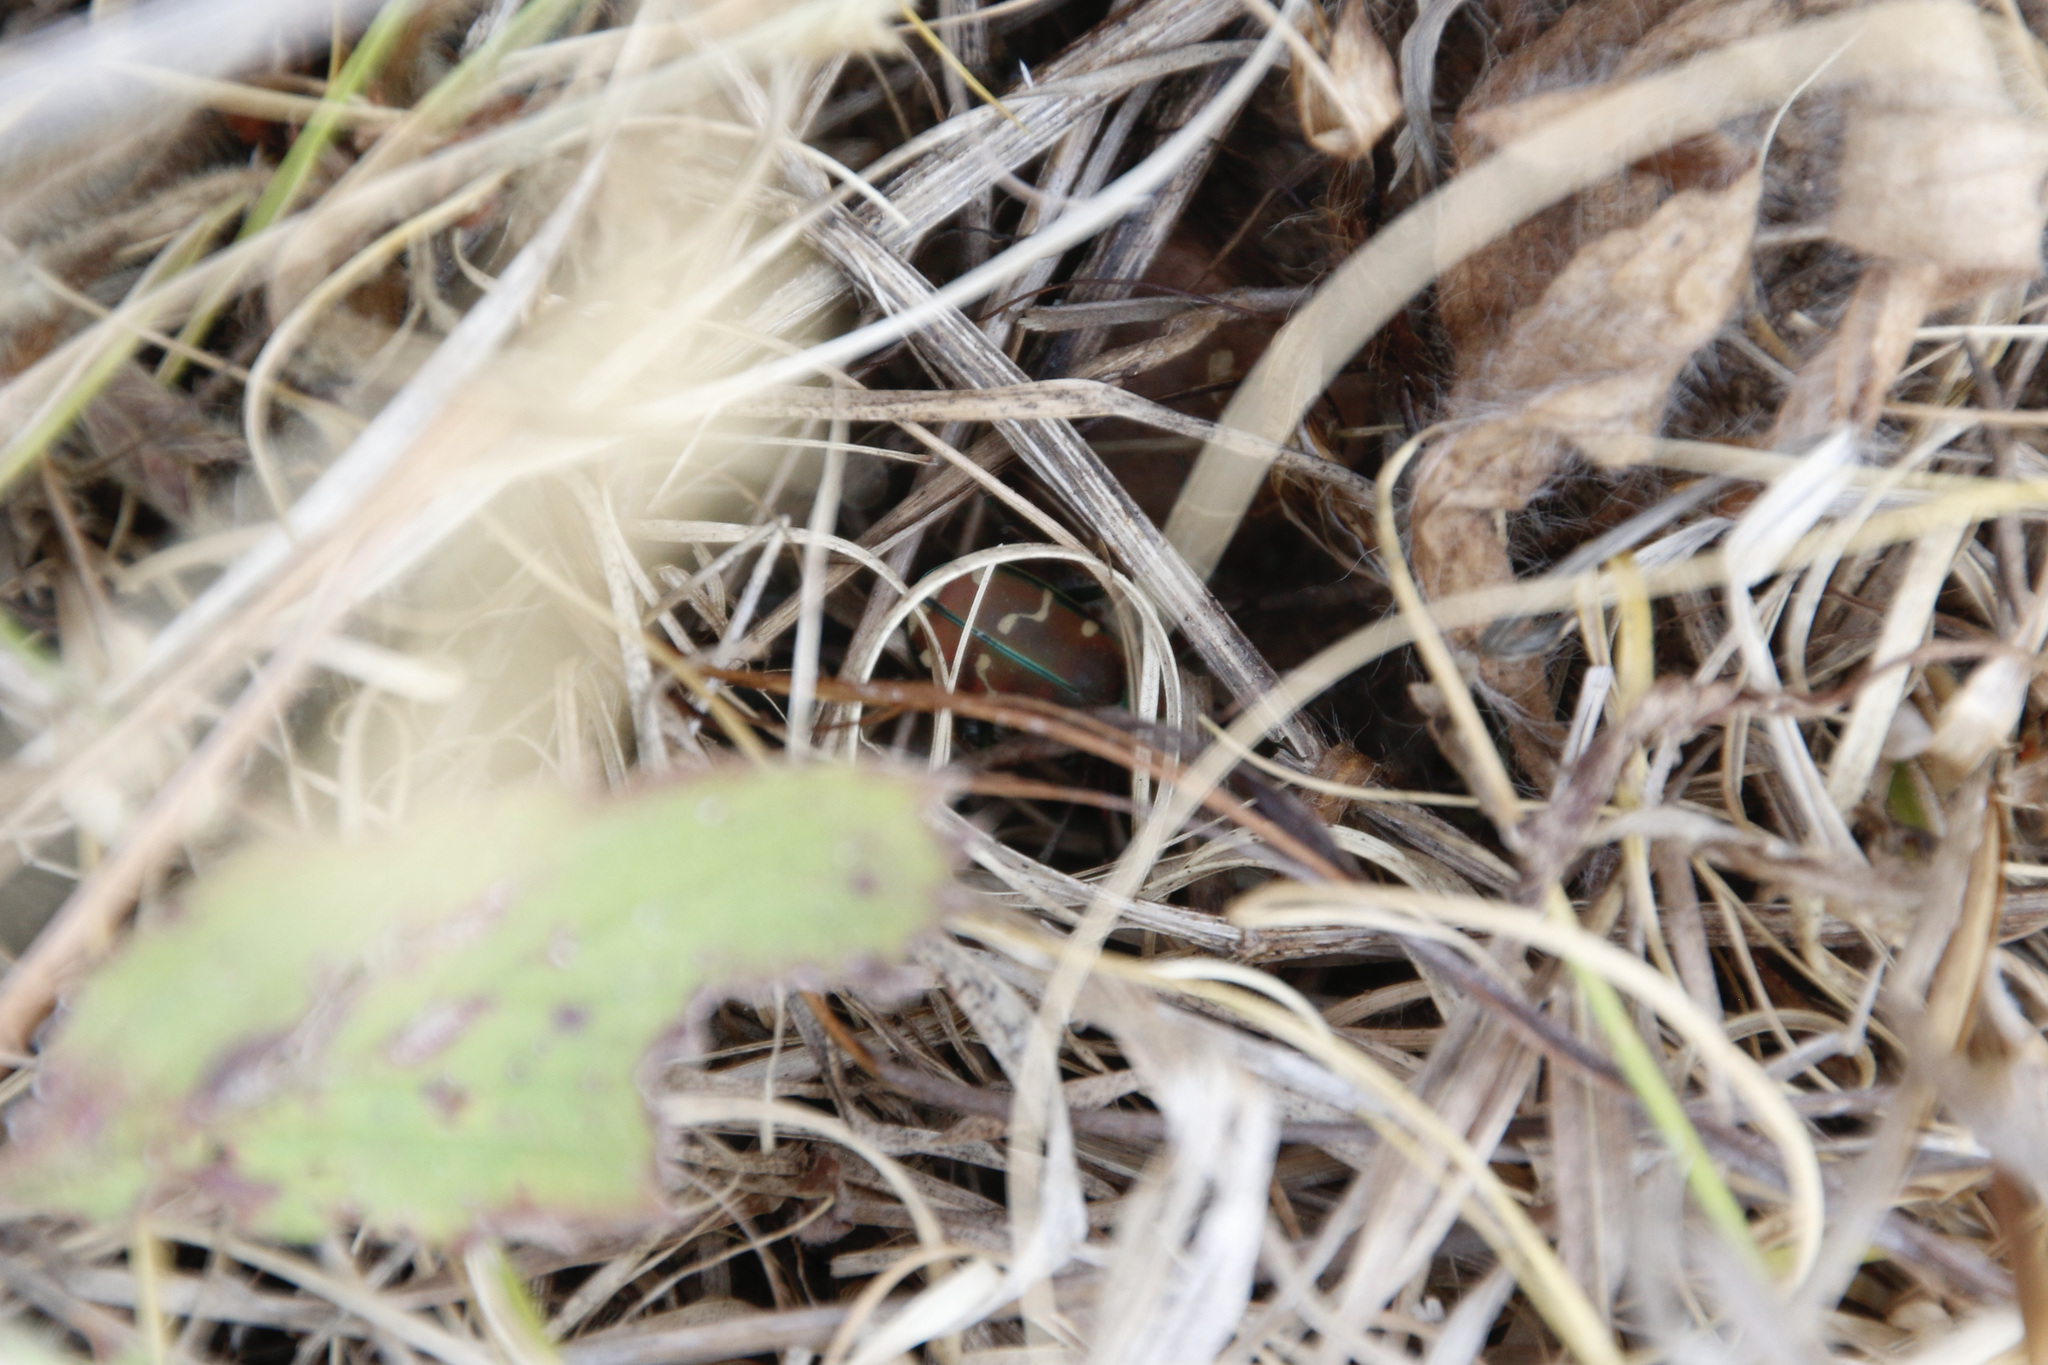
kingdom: Animalia
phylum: Arthropoda
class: Insecta
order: Coleoptera
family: Carabidae
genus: Cicindela
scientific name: Cicindela limbalis
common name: Common claybank tiger beetle
